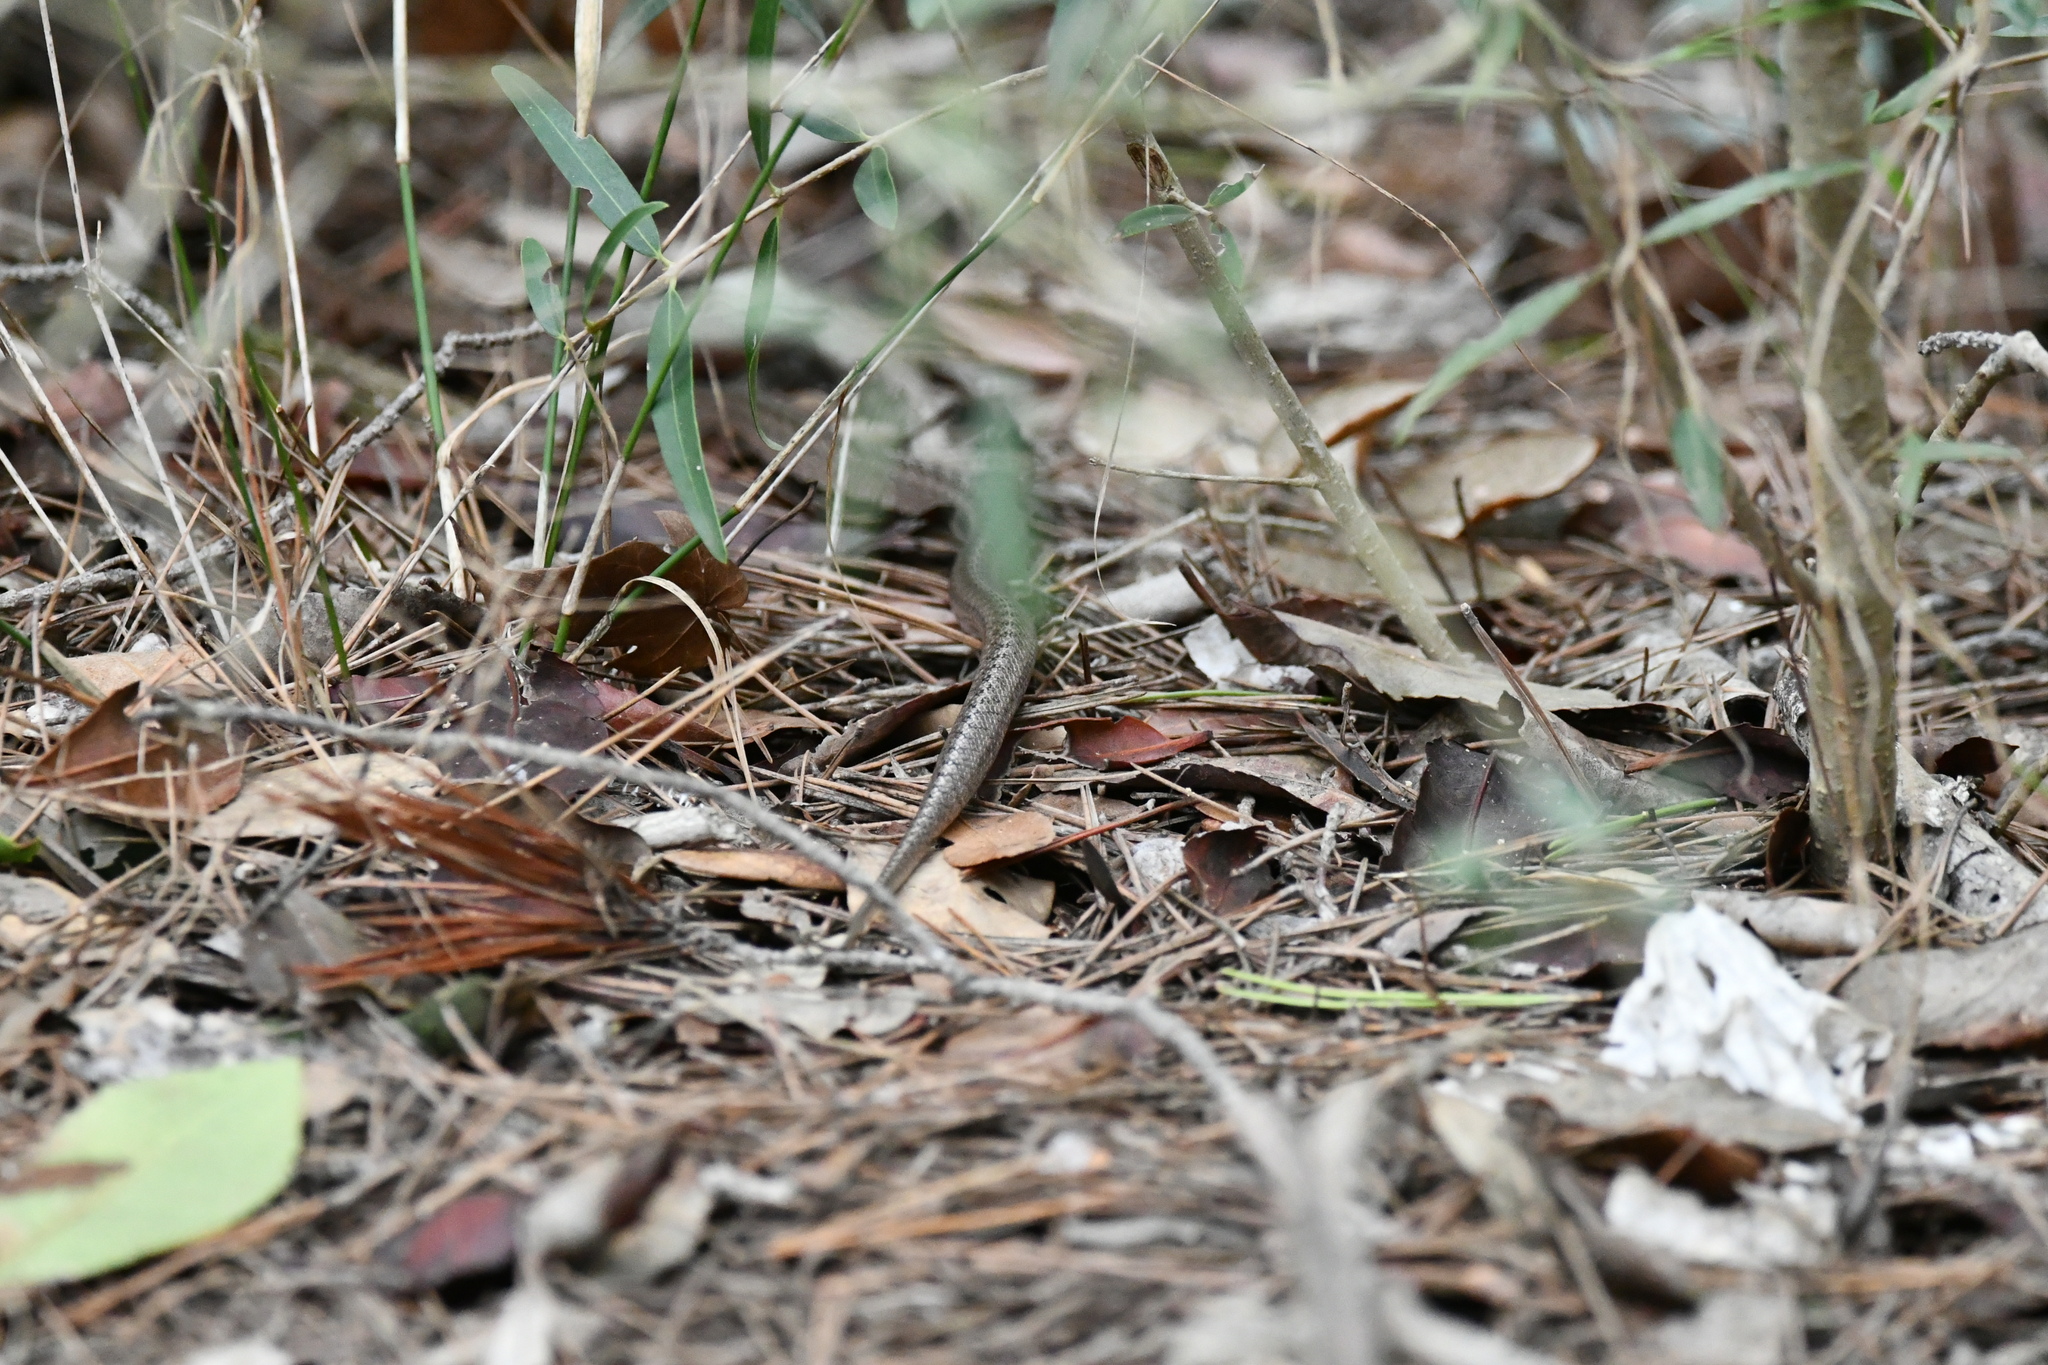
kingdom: Animalia
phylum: Chordata
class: Squamata
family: Colubridae
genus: Coronella
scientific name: Coronella girondica
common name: Southern smooth snake
